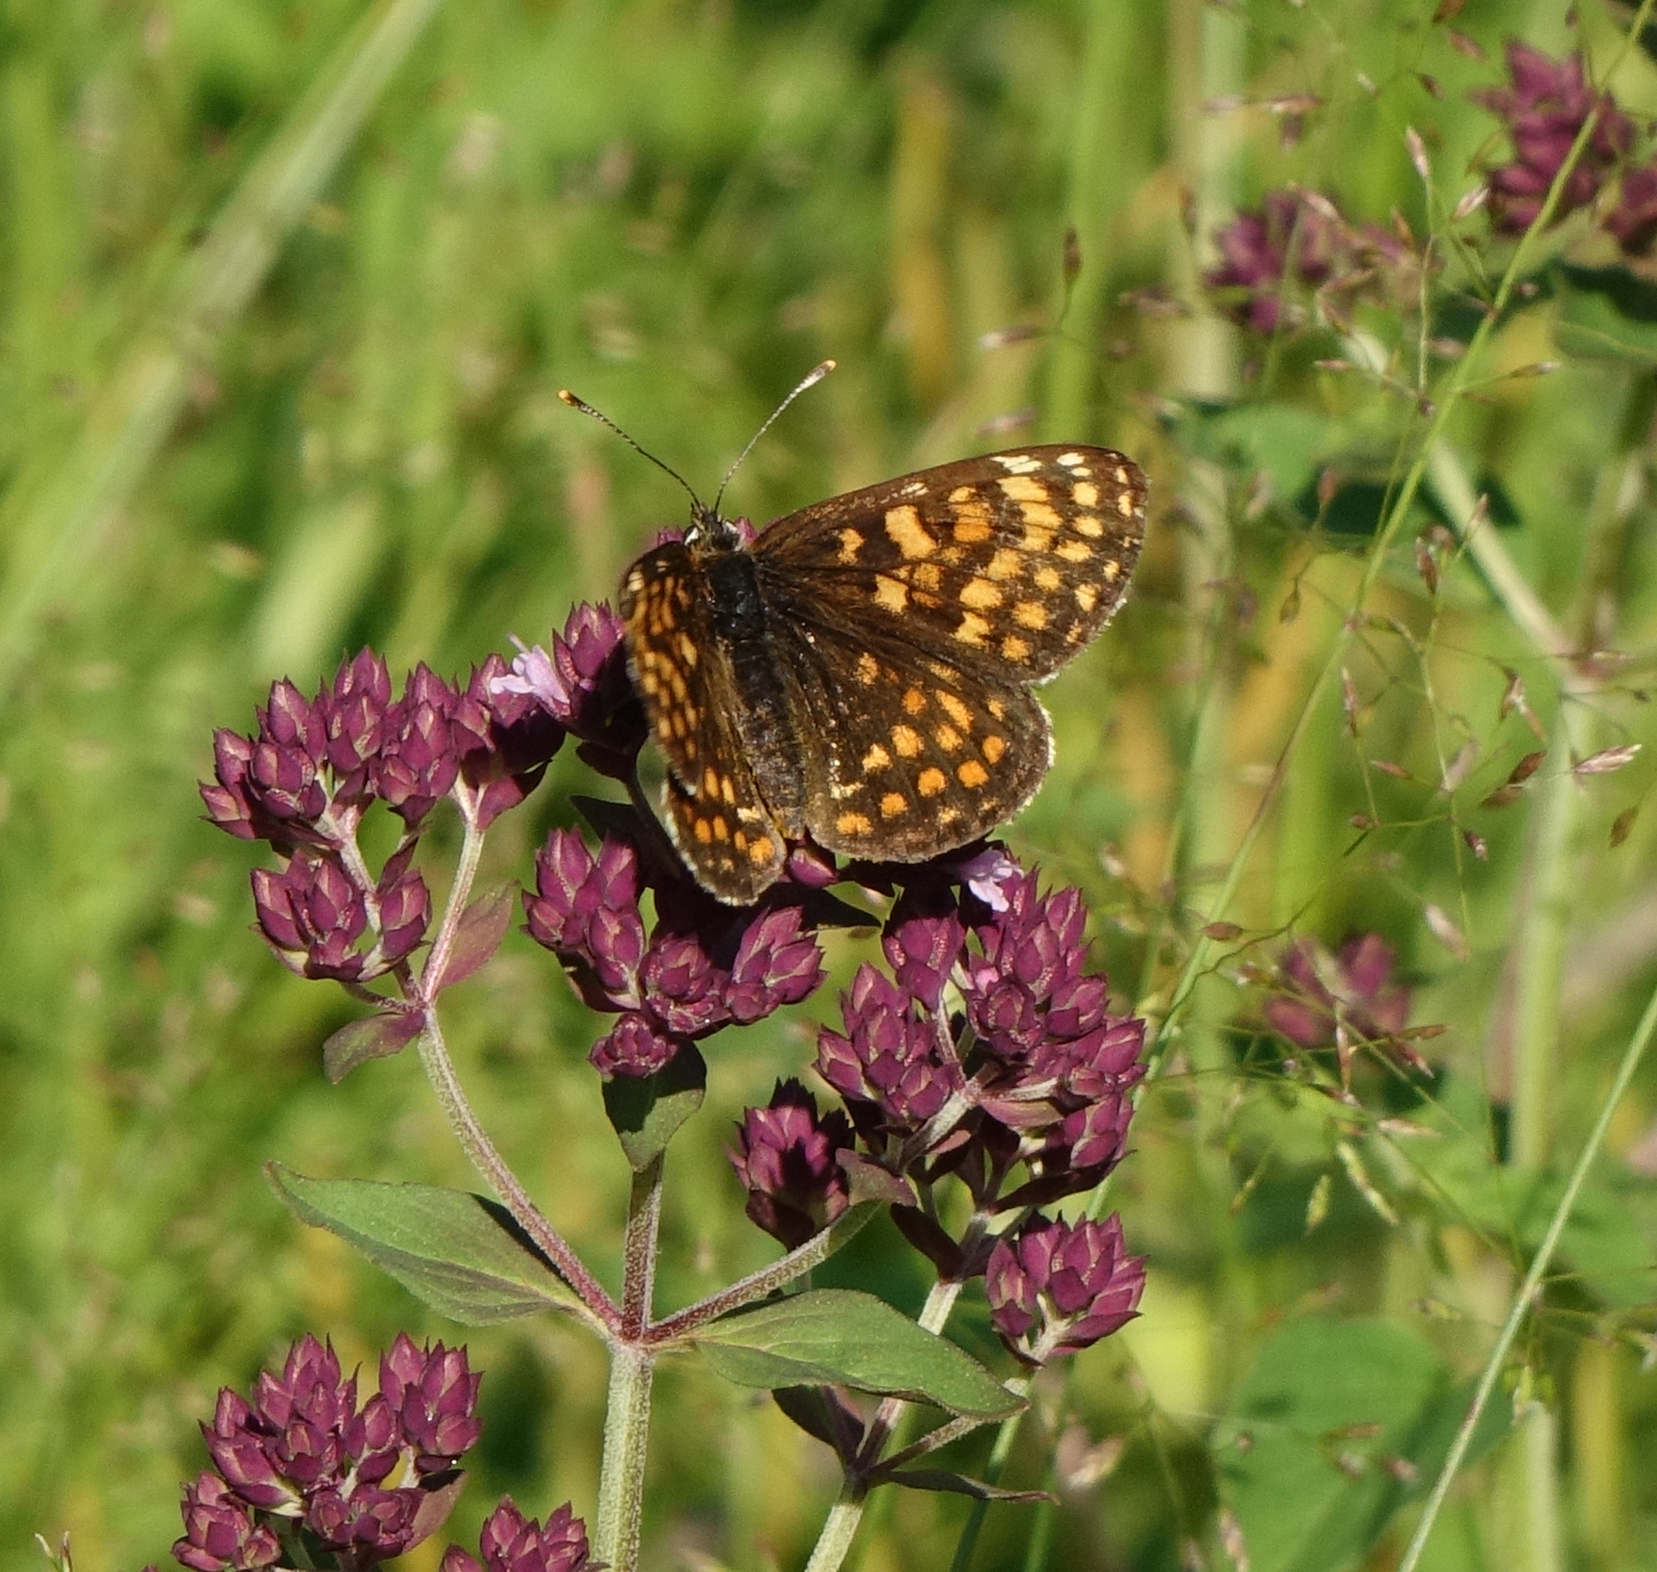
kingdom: Animalia
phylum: Arthropoda
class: Insecta
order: Lepidoptera
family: Nymphalidae
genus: Melitaea
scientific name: Melitaea
